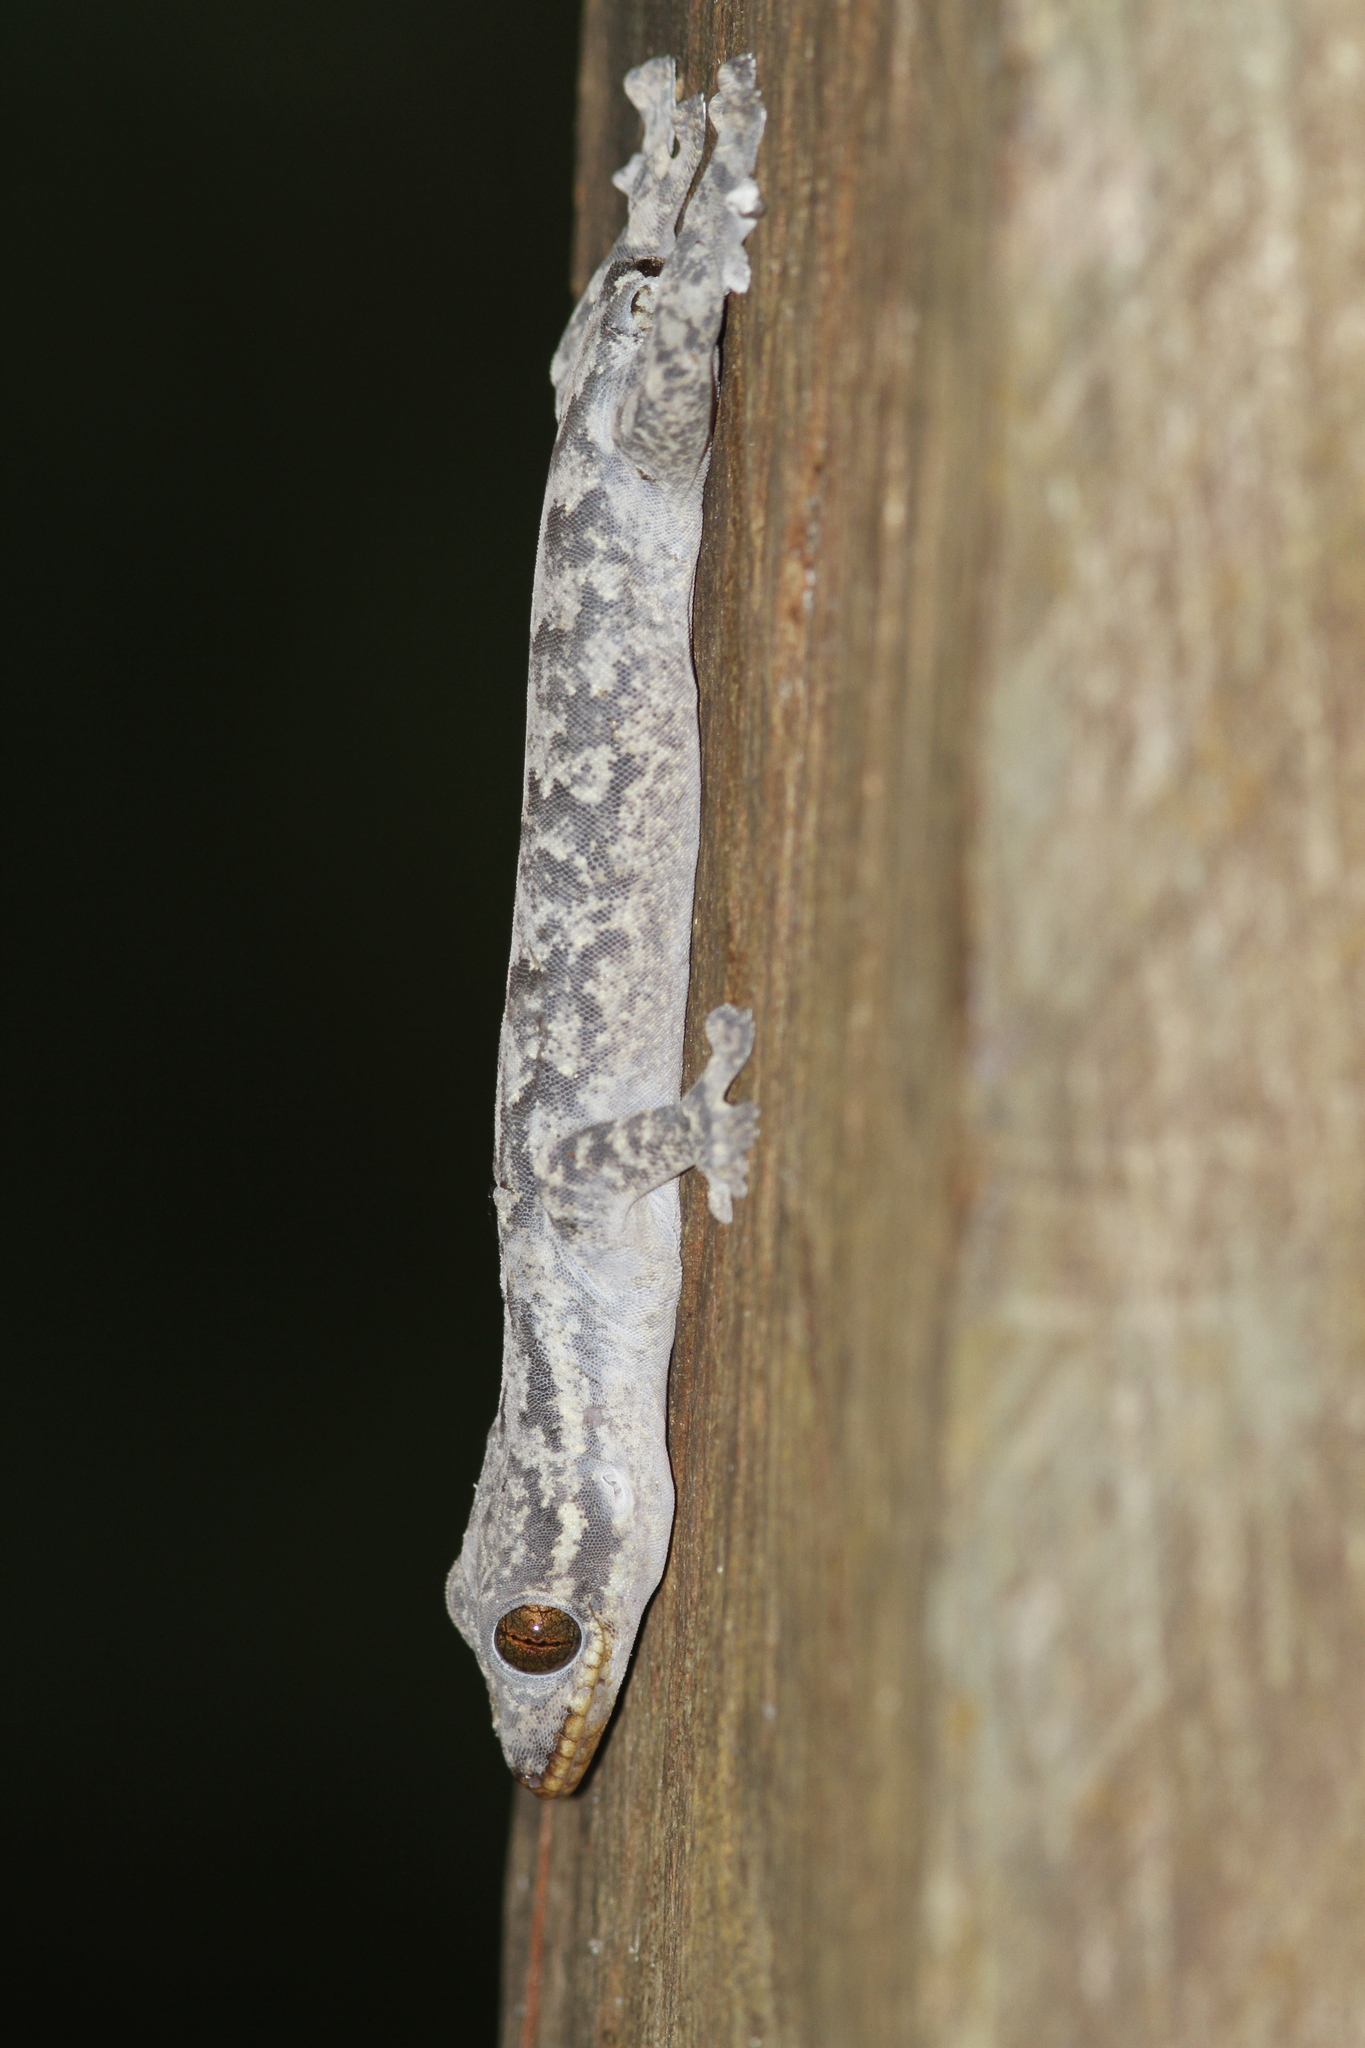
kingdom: Animalia
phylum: Chordata
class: Squamata
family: Phyllodactylidae
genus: Thecadactylus
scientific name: Thecadactylus rapicauda
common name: Turnip-tailed gecko
